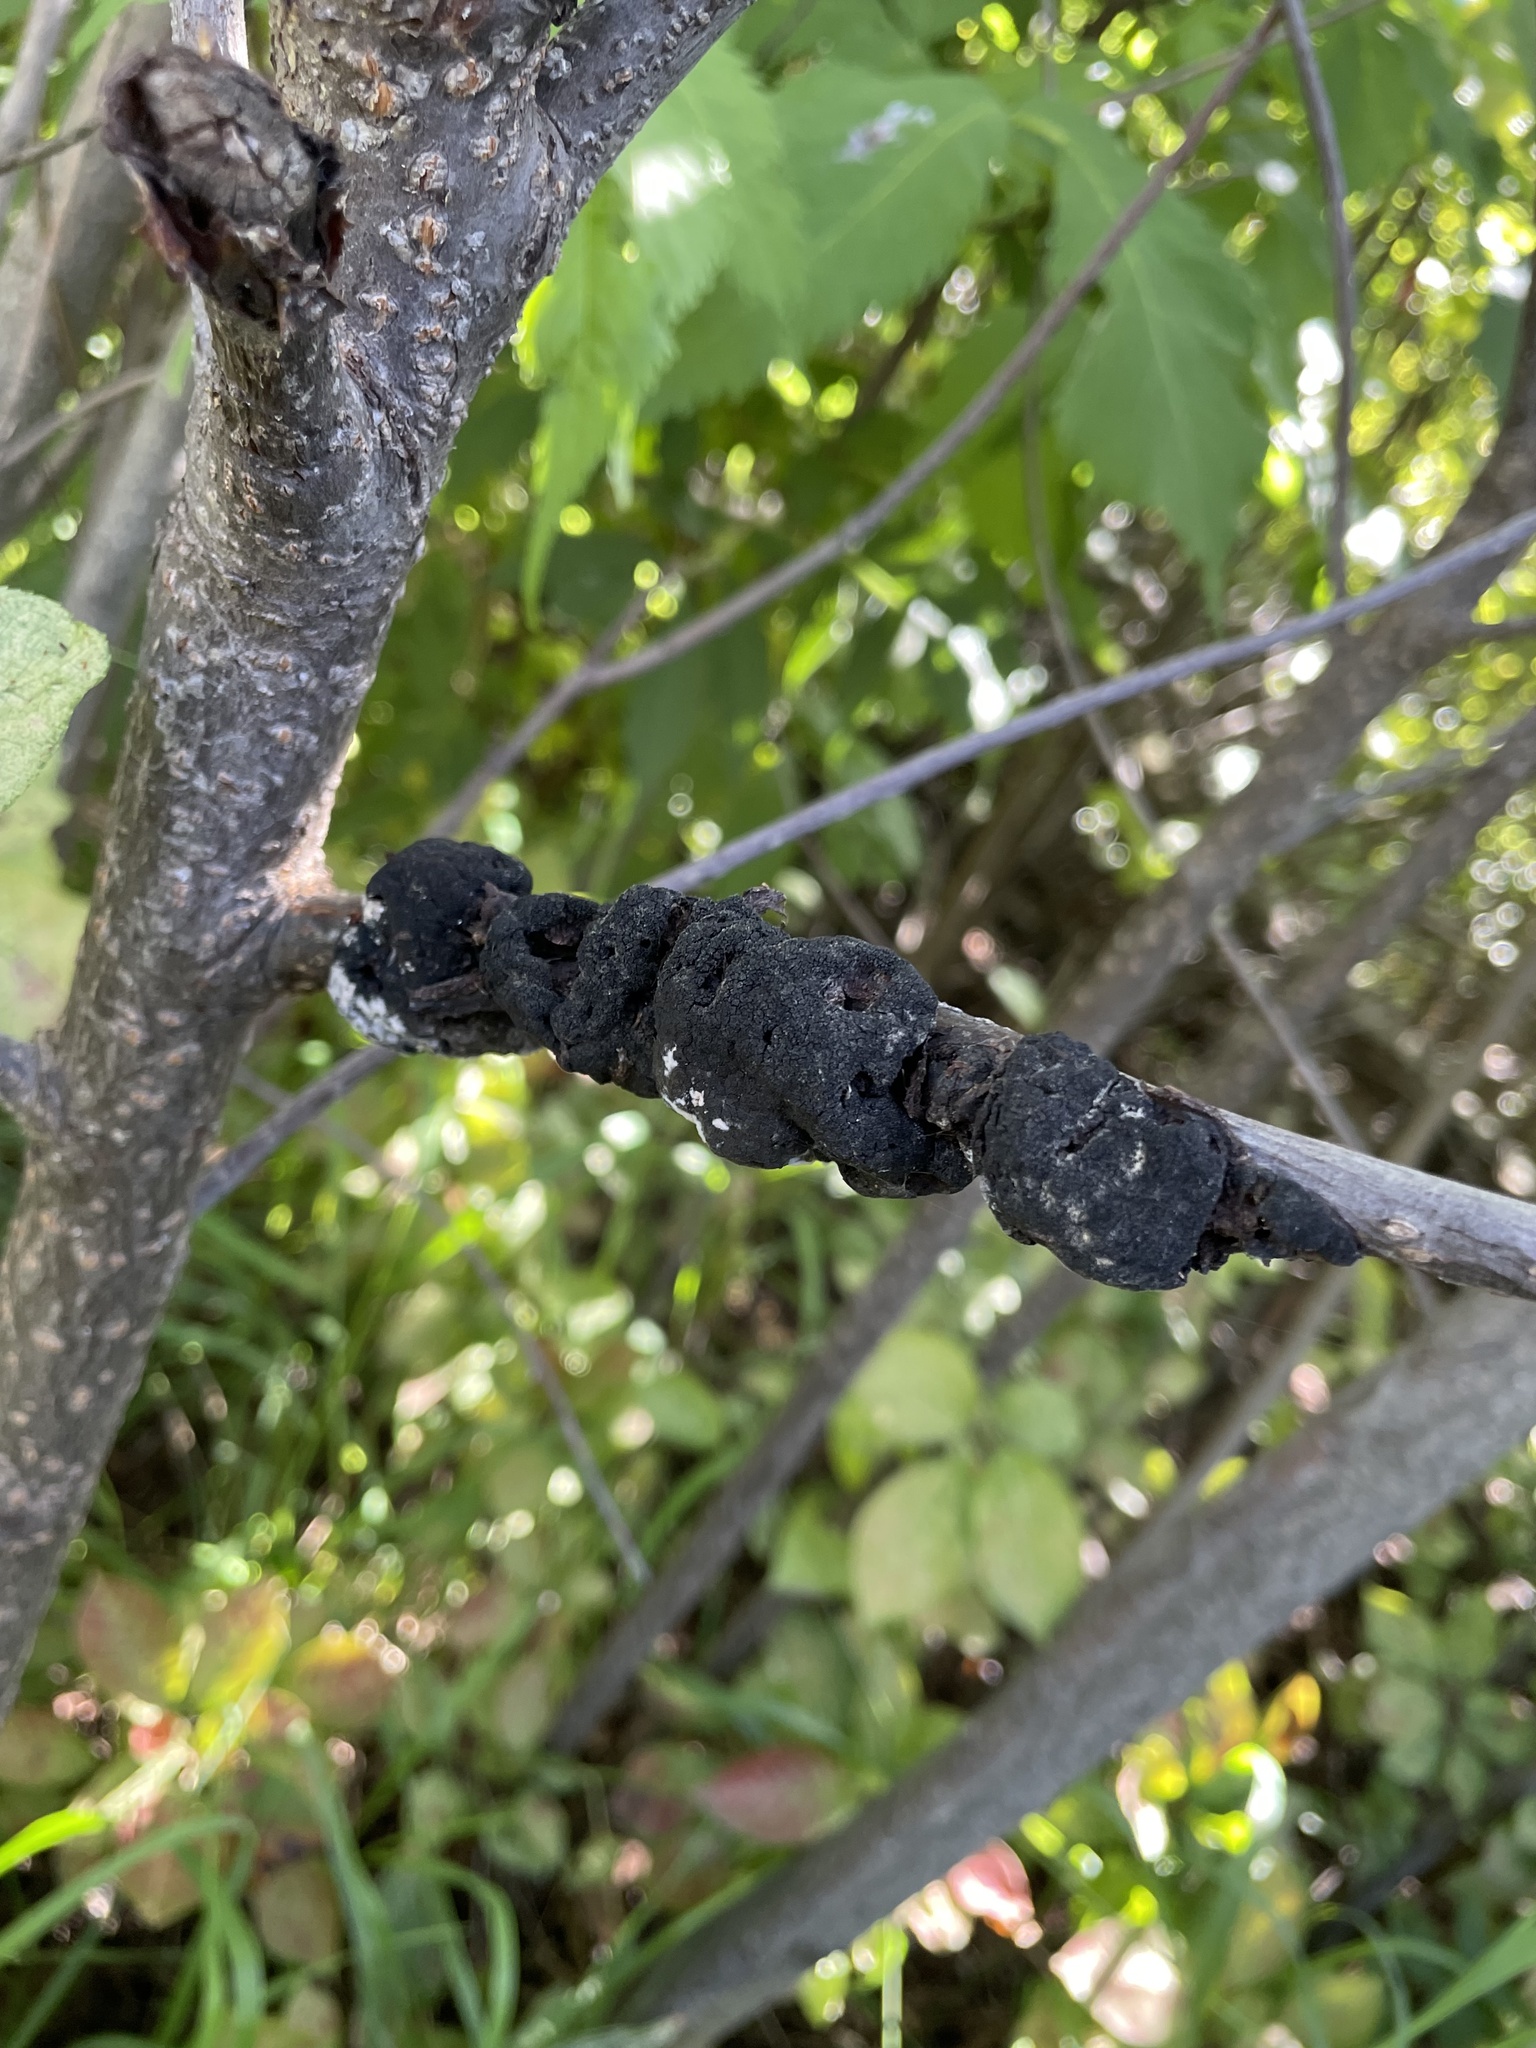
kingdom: Fungi
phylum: Ascomycota
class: Dothideomycetes
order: Venturiales
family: Venturiaceae
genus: Apiosporina
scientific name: Apiosporina morbosa
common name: Black knot
